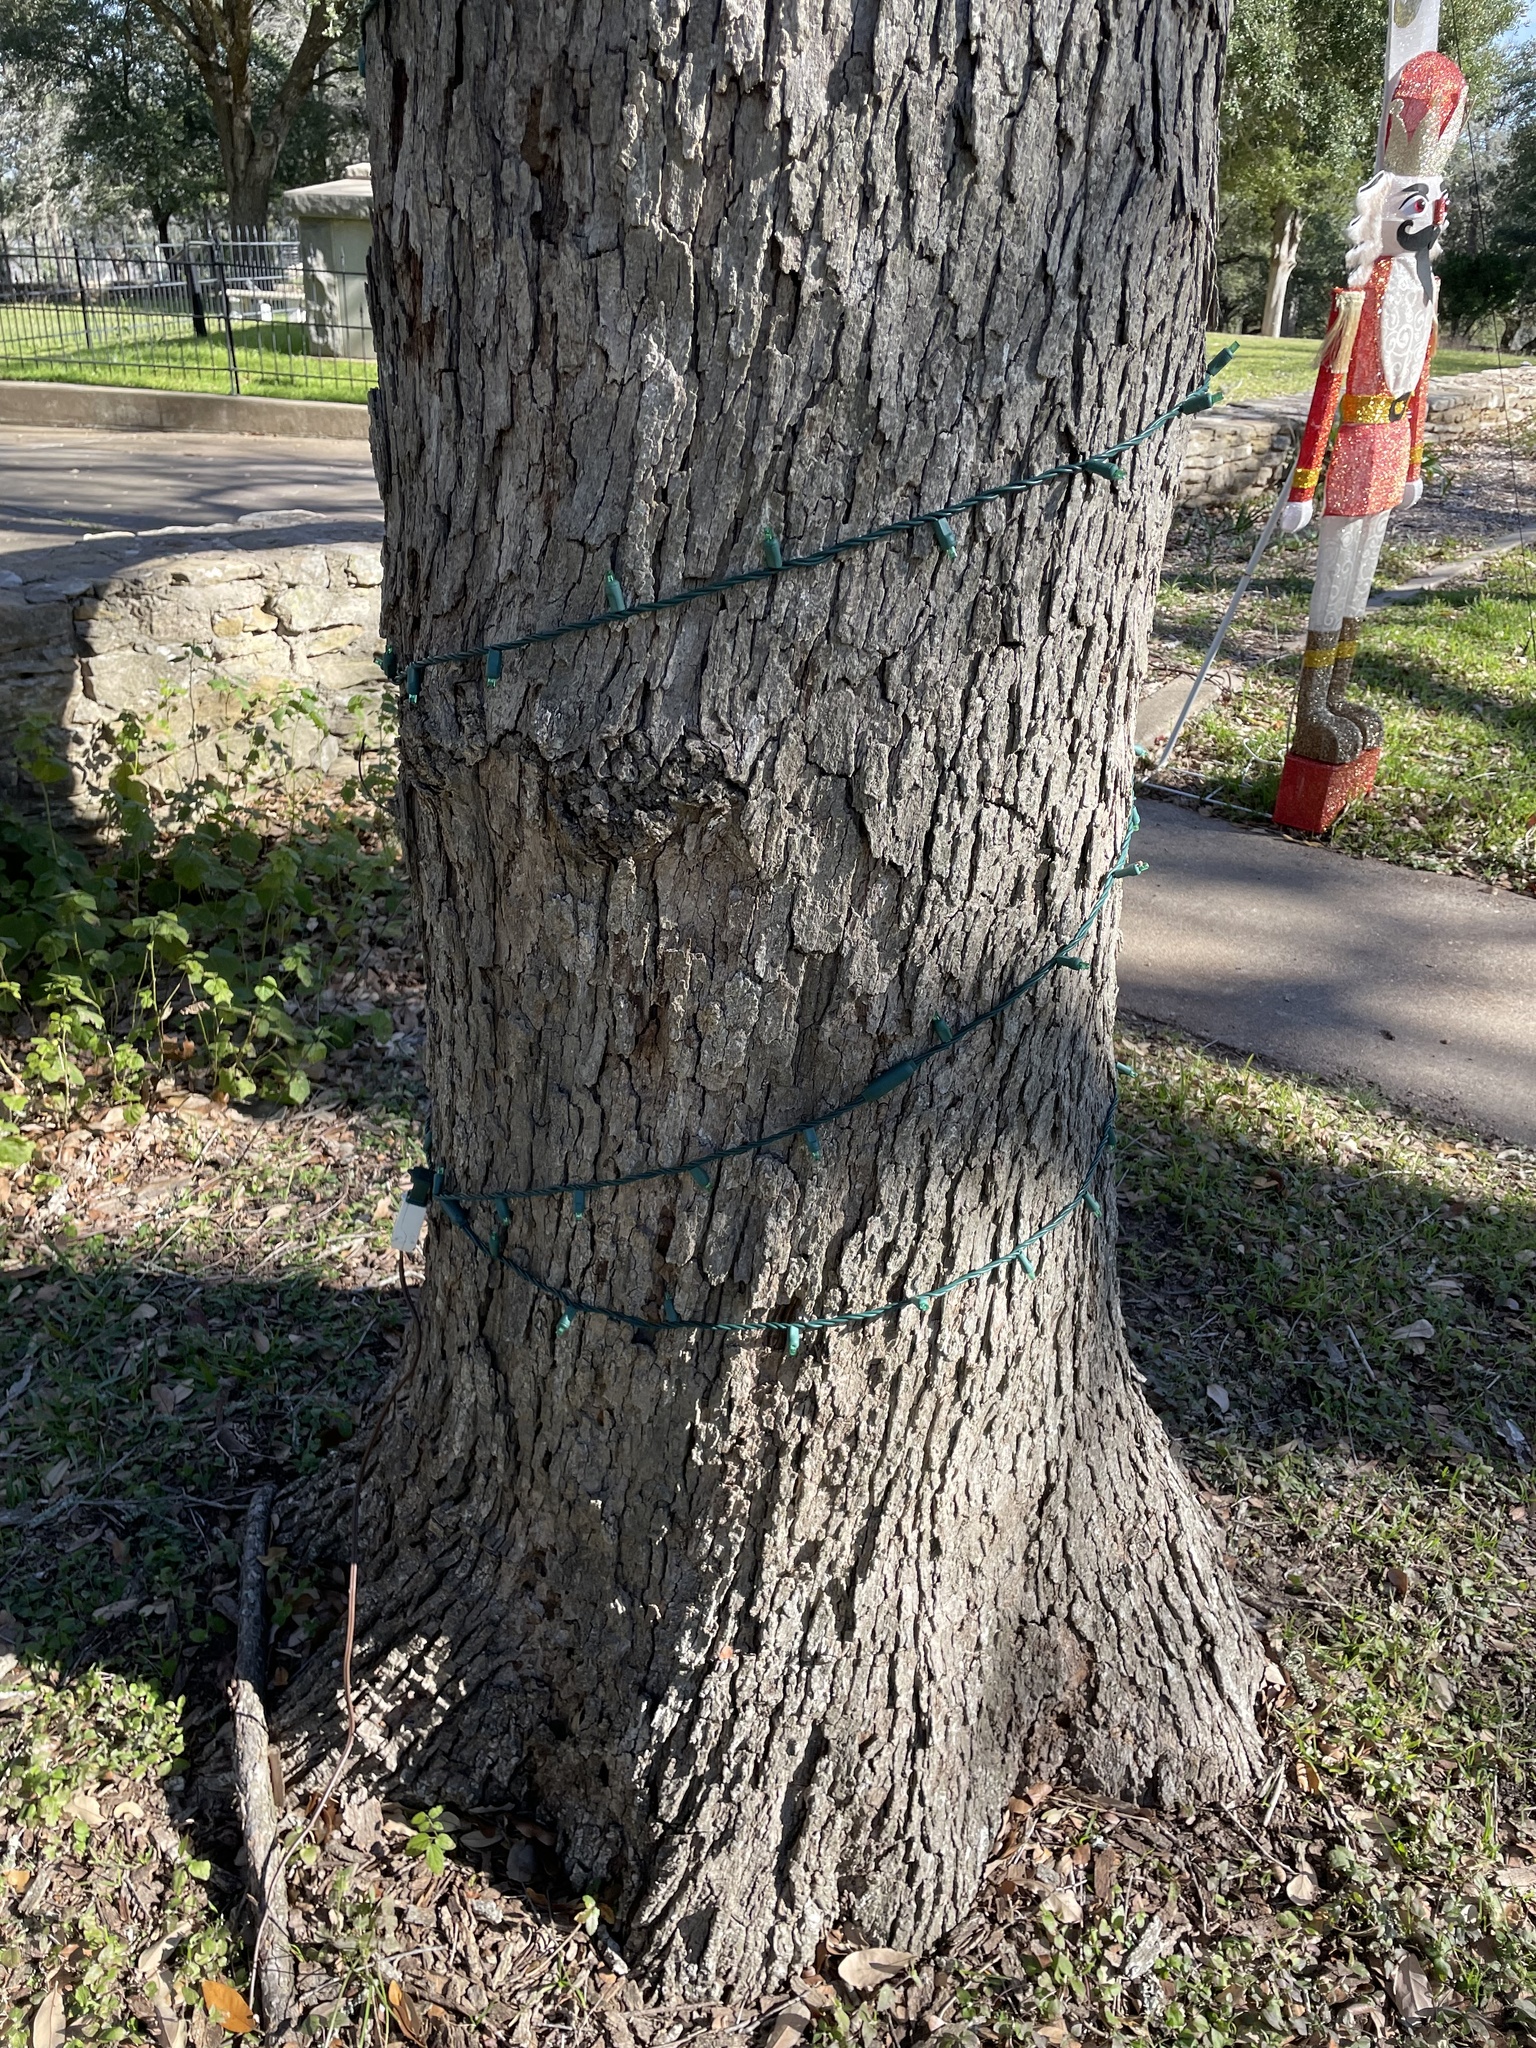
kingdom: Plantae
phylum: Tracheophyta
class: Magnoliopsida
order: Fagales
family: Fagaceae
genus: Quercus
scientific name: Quercus sinuata
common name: Durand oak
